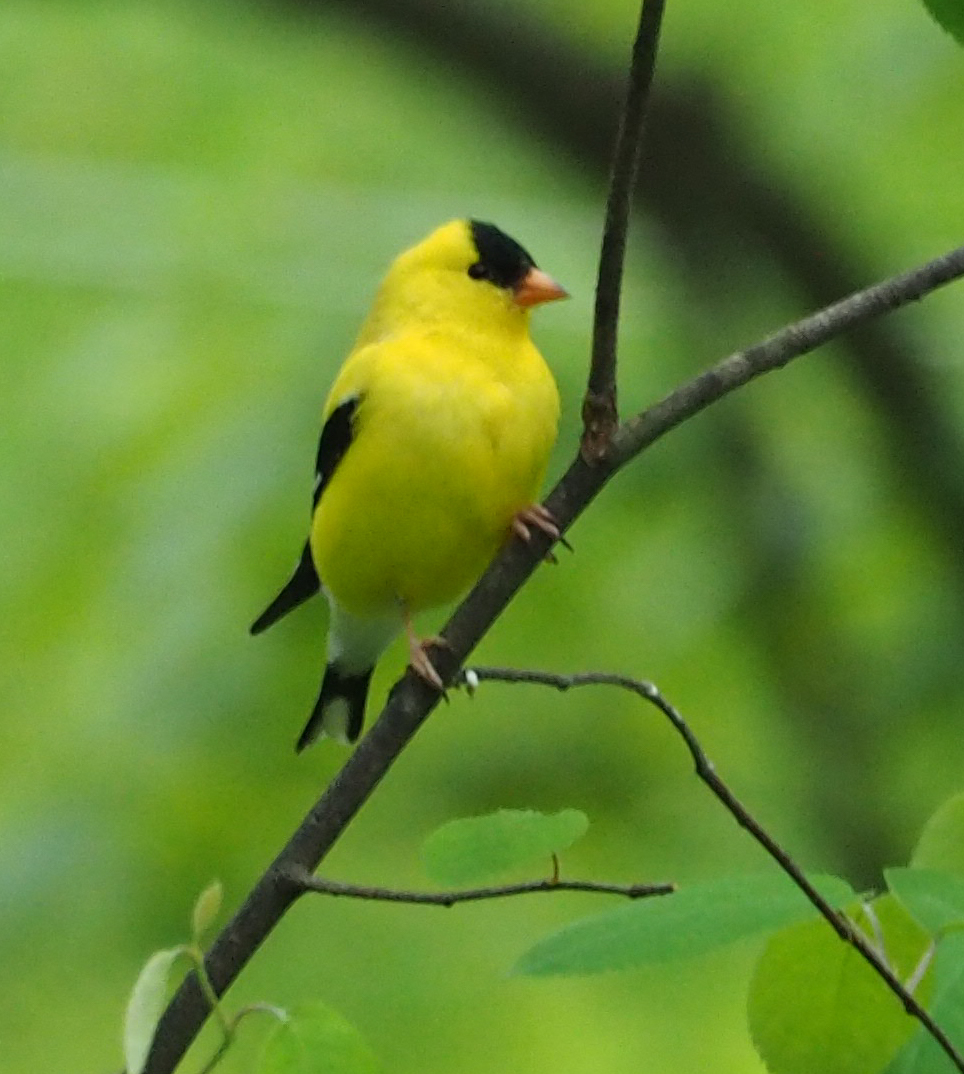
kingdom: Animalia
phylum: Chordata
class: Aves
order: Passeriformes
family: Fringillidae
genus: Spinus
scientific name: Spinus tristis
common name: American goldfinch
